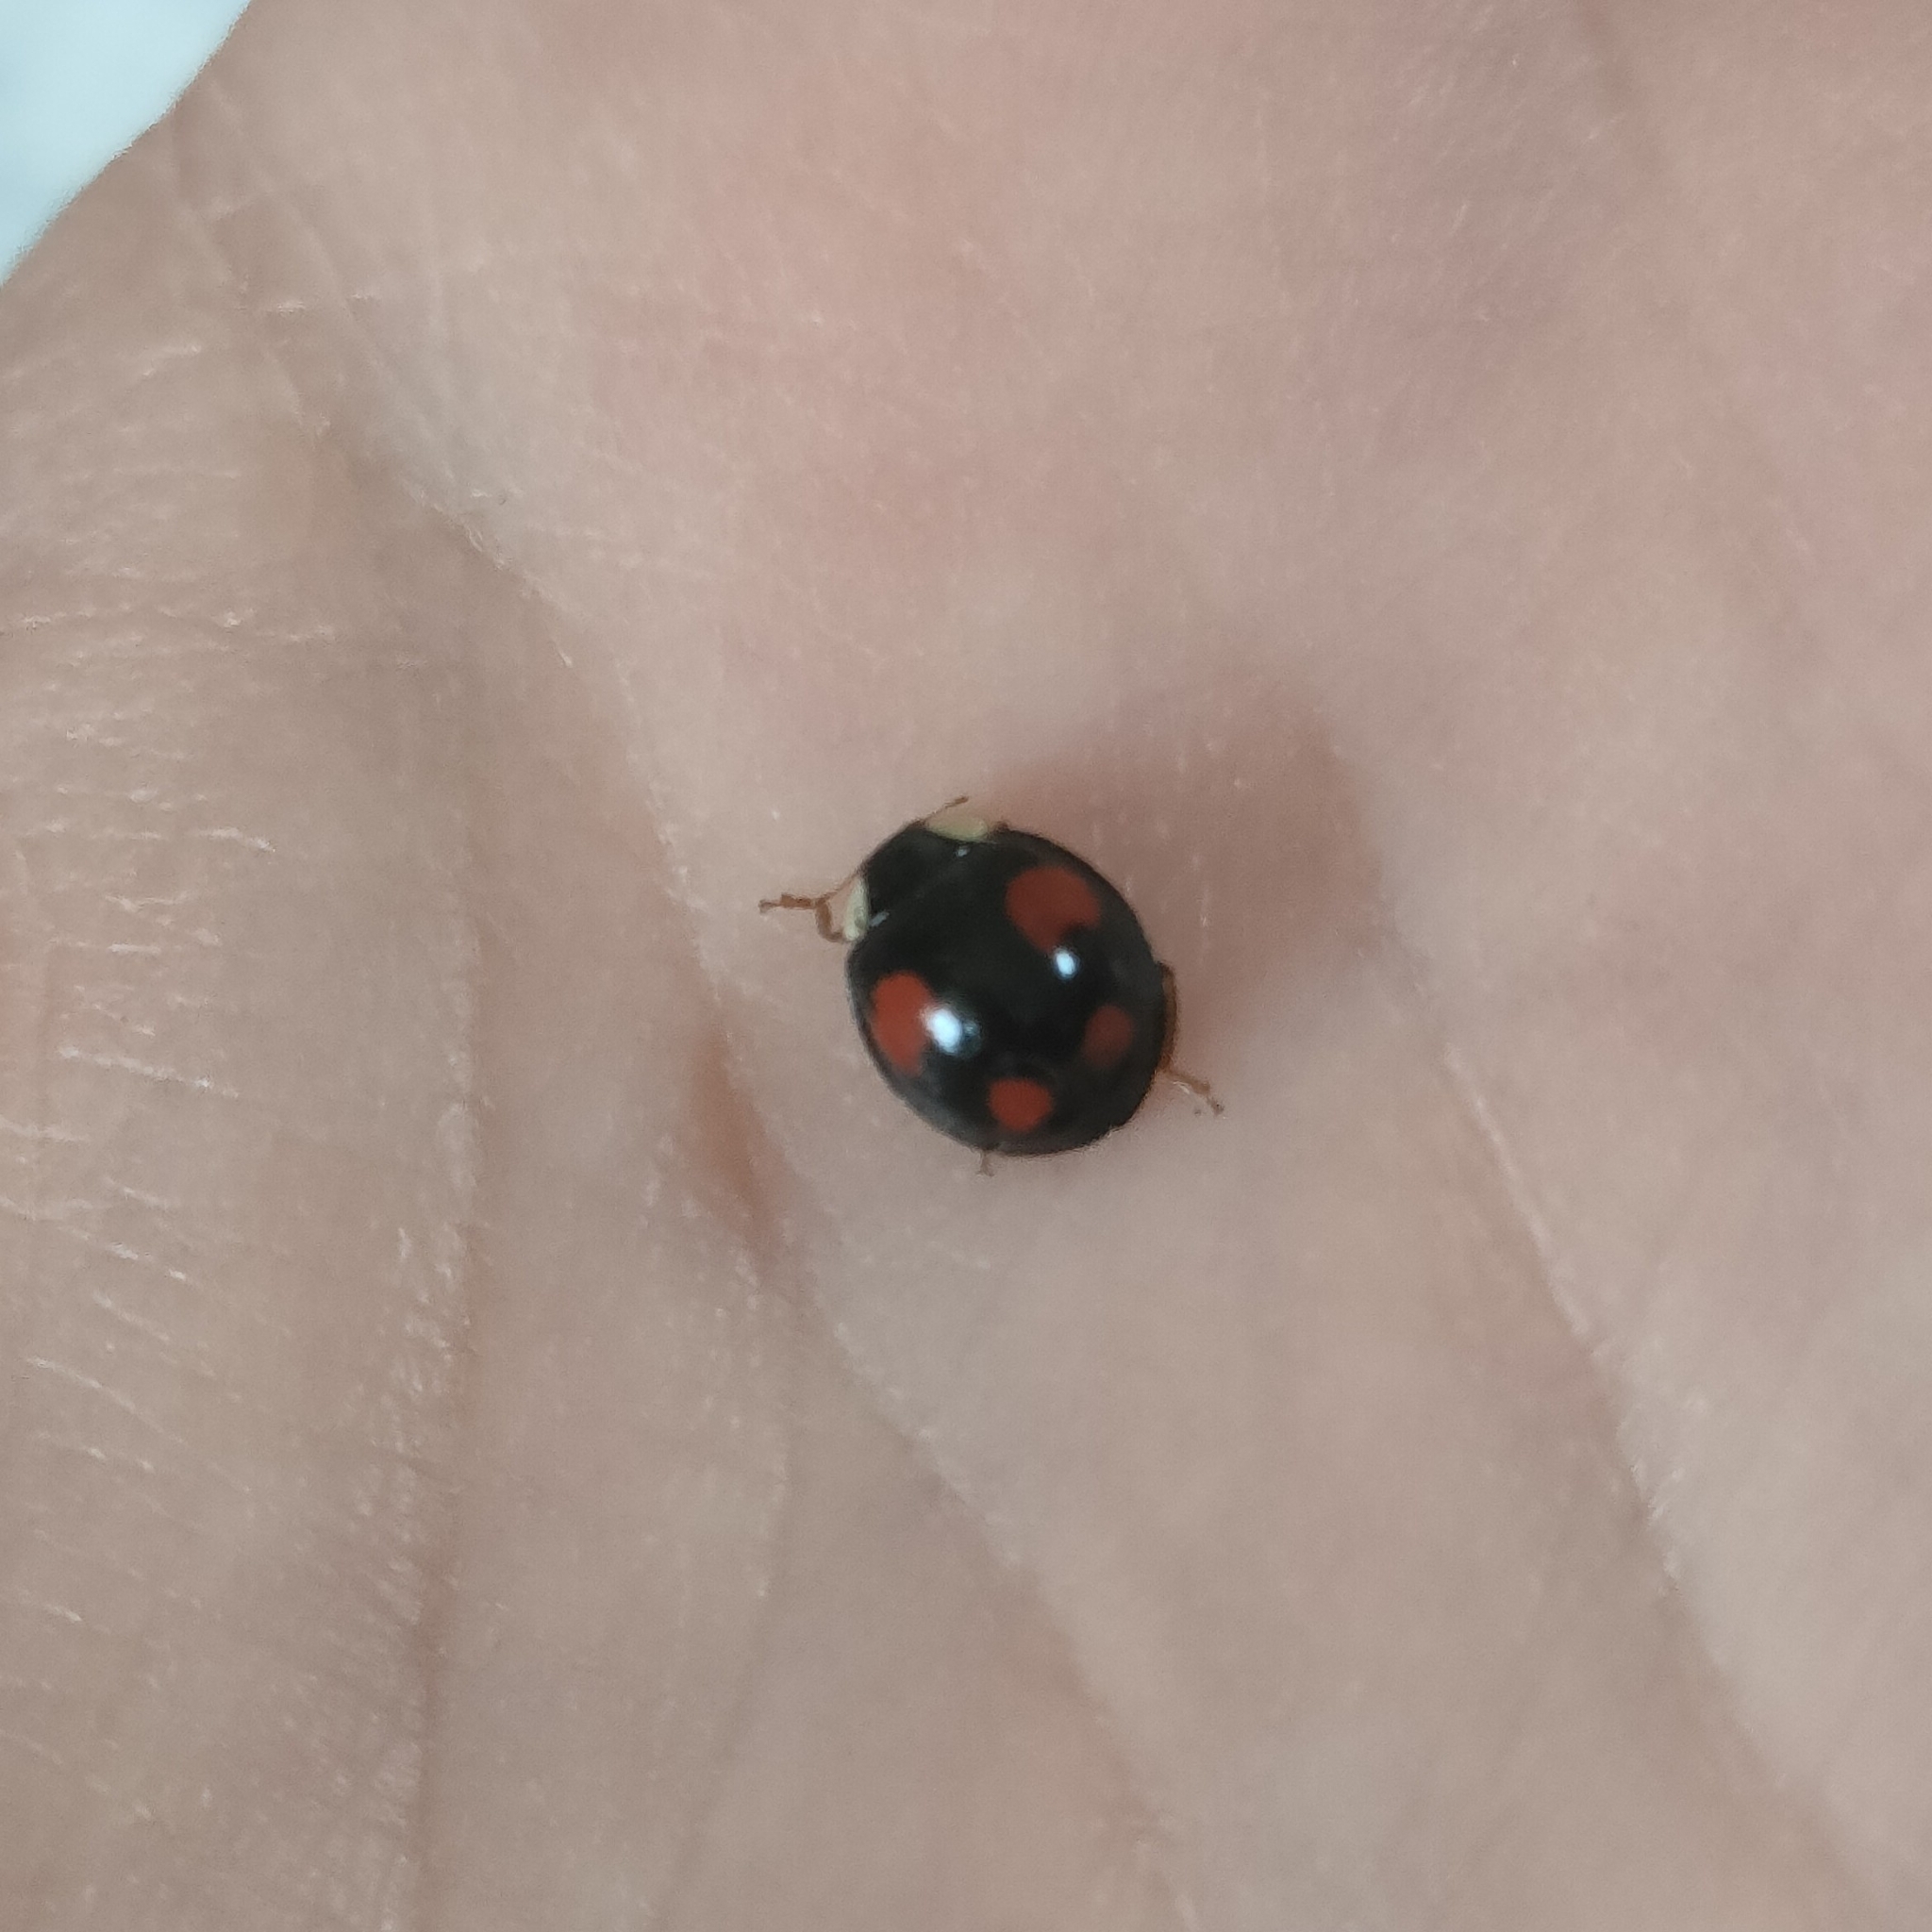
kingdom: Animalia
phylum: Arthropoda
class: Insecta
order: Coleoptera
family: Coccinellidae
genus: Harmonia
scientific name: Harmonia axyridis
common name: Harlequin ladybird
